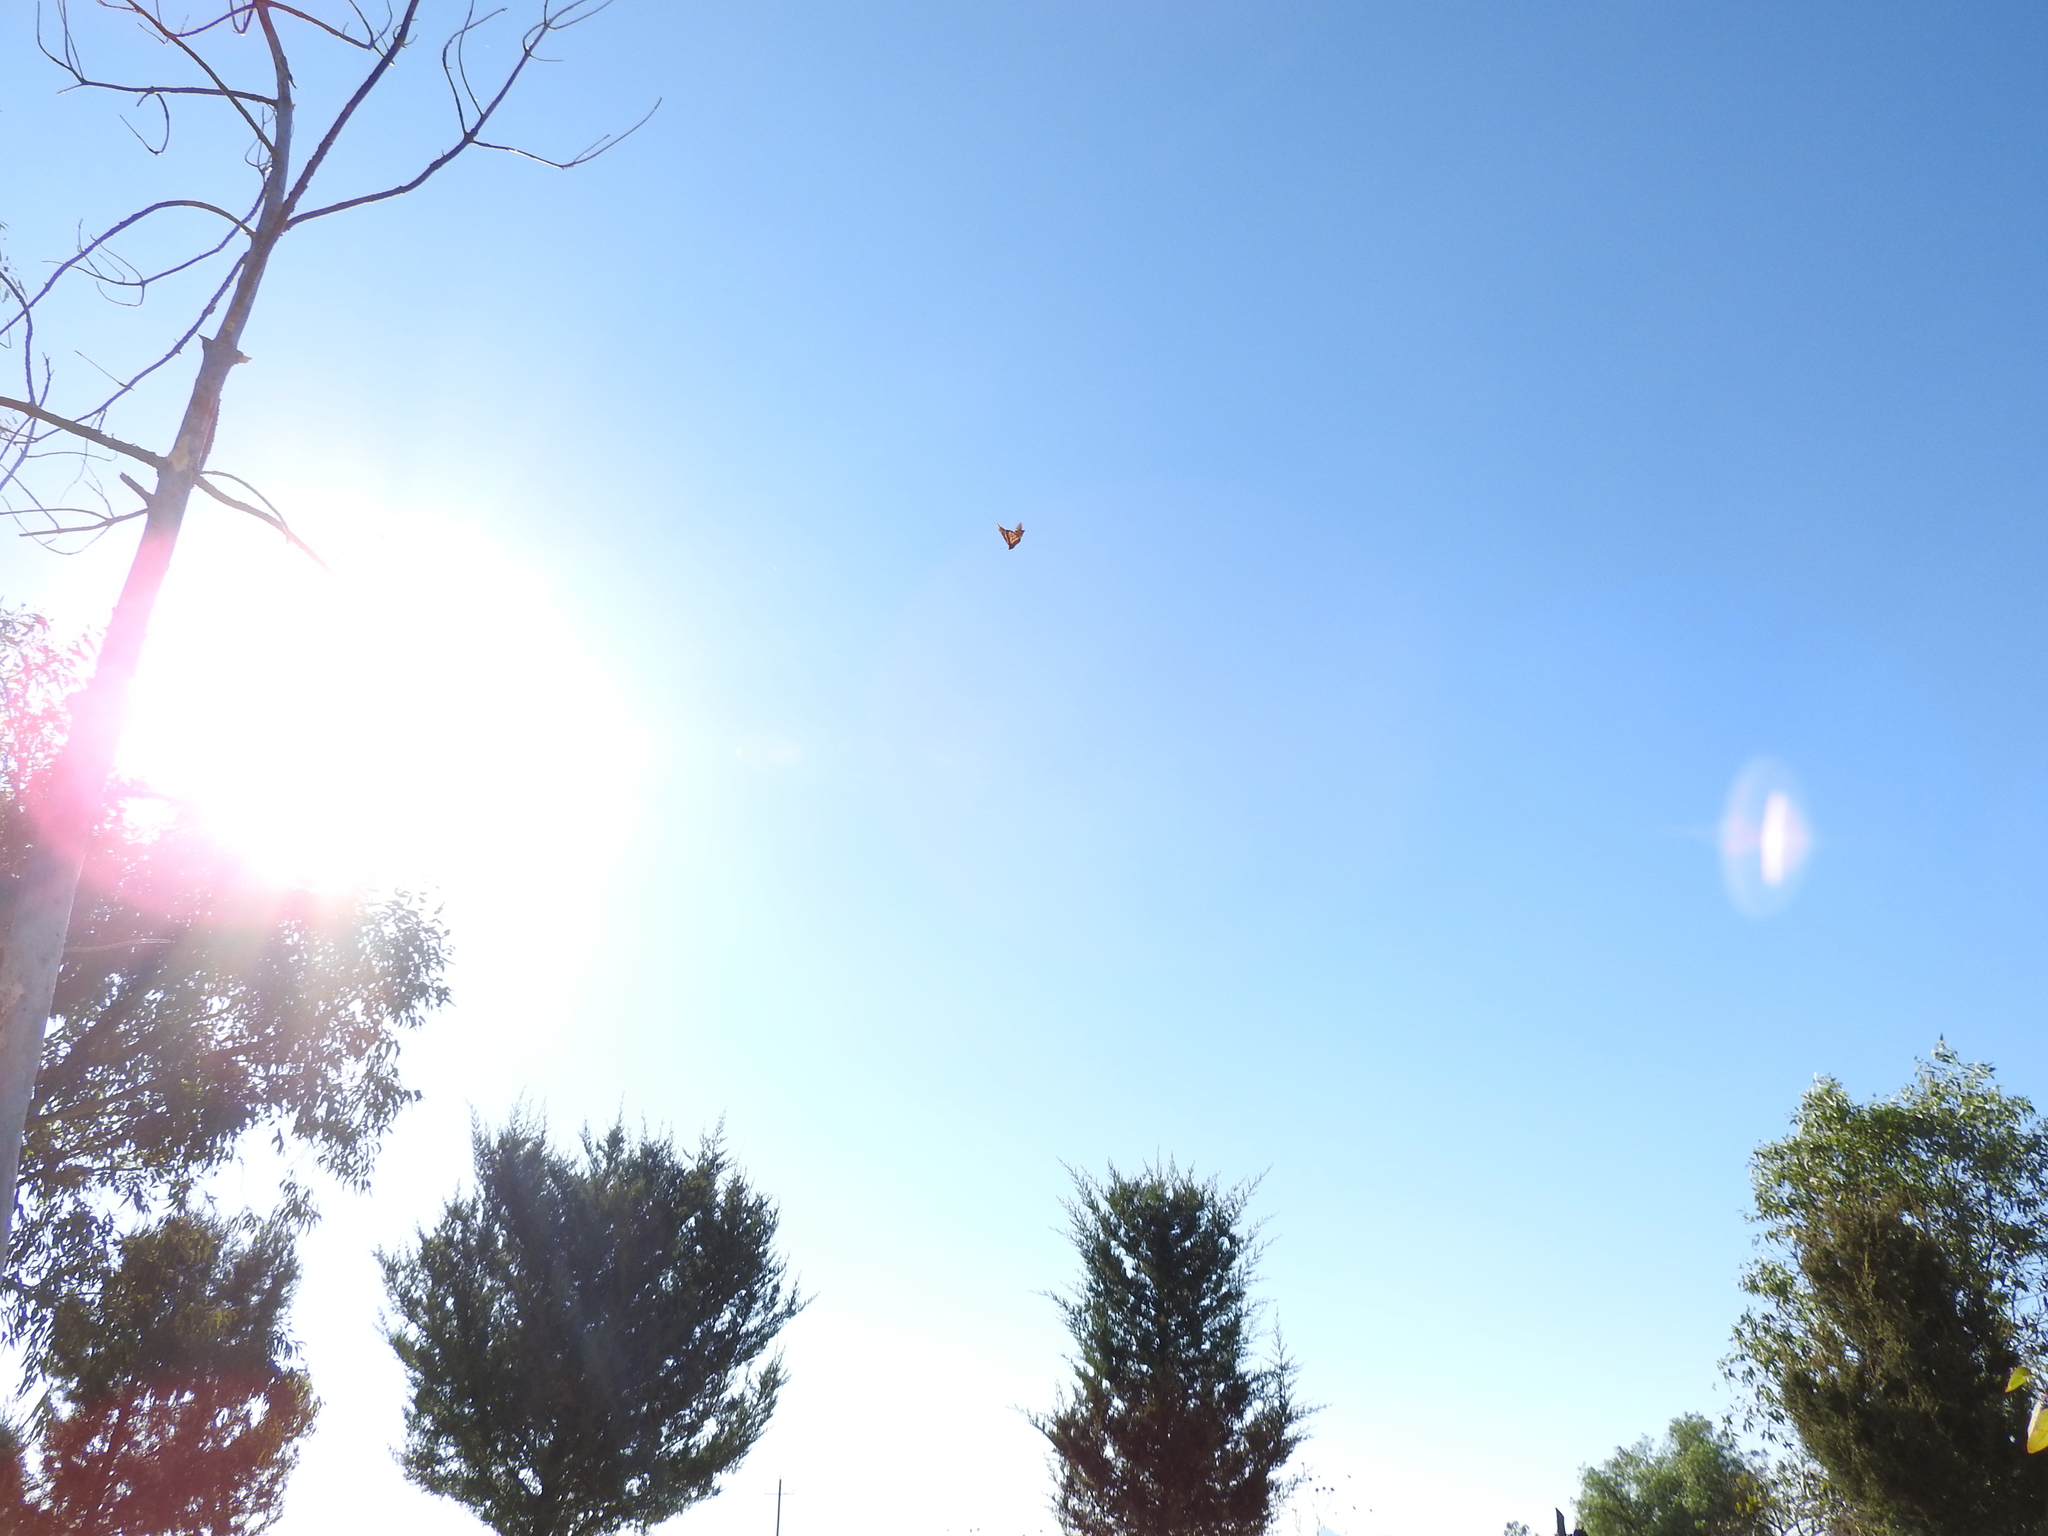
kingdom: Animalia
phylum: Arthropoda
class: Insecta
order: Lepidoptera
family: Nymphalidae
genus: Danaus
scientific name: Danaus plexippus
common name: Monarch
